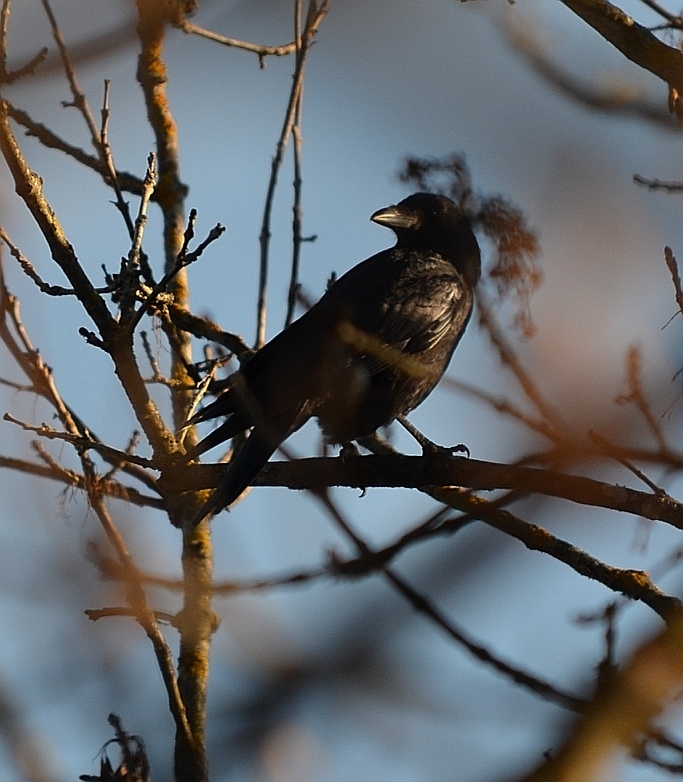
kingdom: Animalia
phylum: Chordata
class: Aves
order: Passeriformes
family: Corvidae
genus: Corvus
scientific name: Corvus corone
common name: Carrion crow
